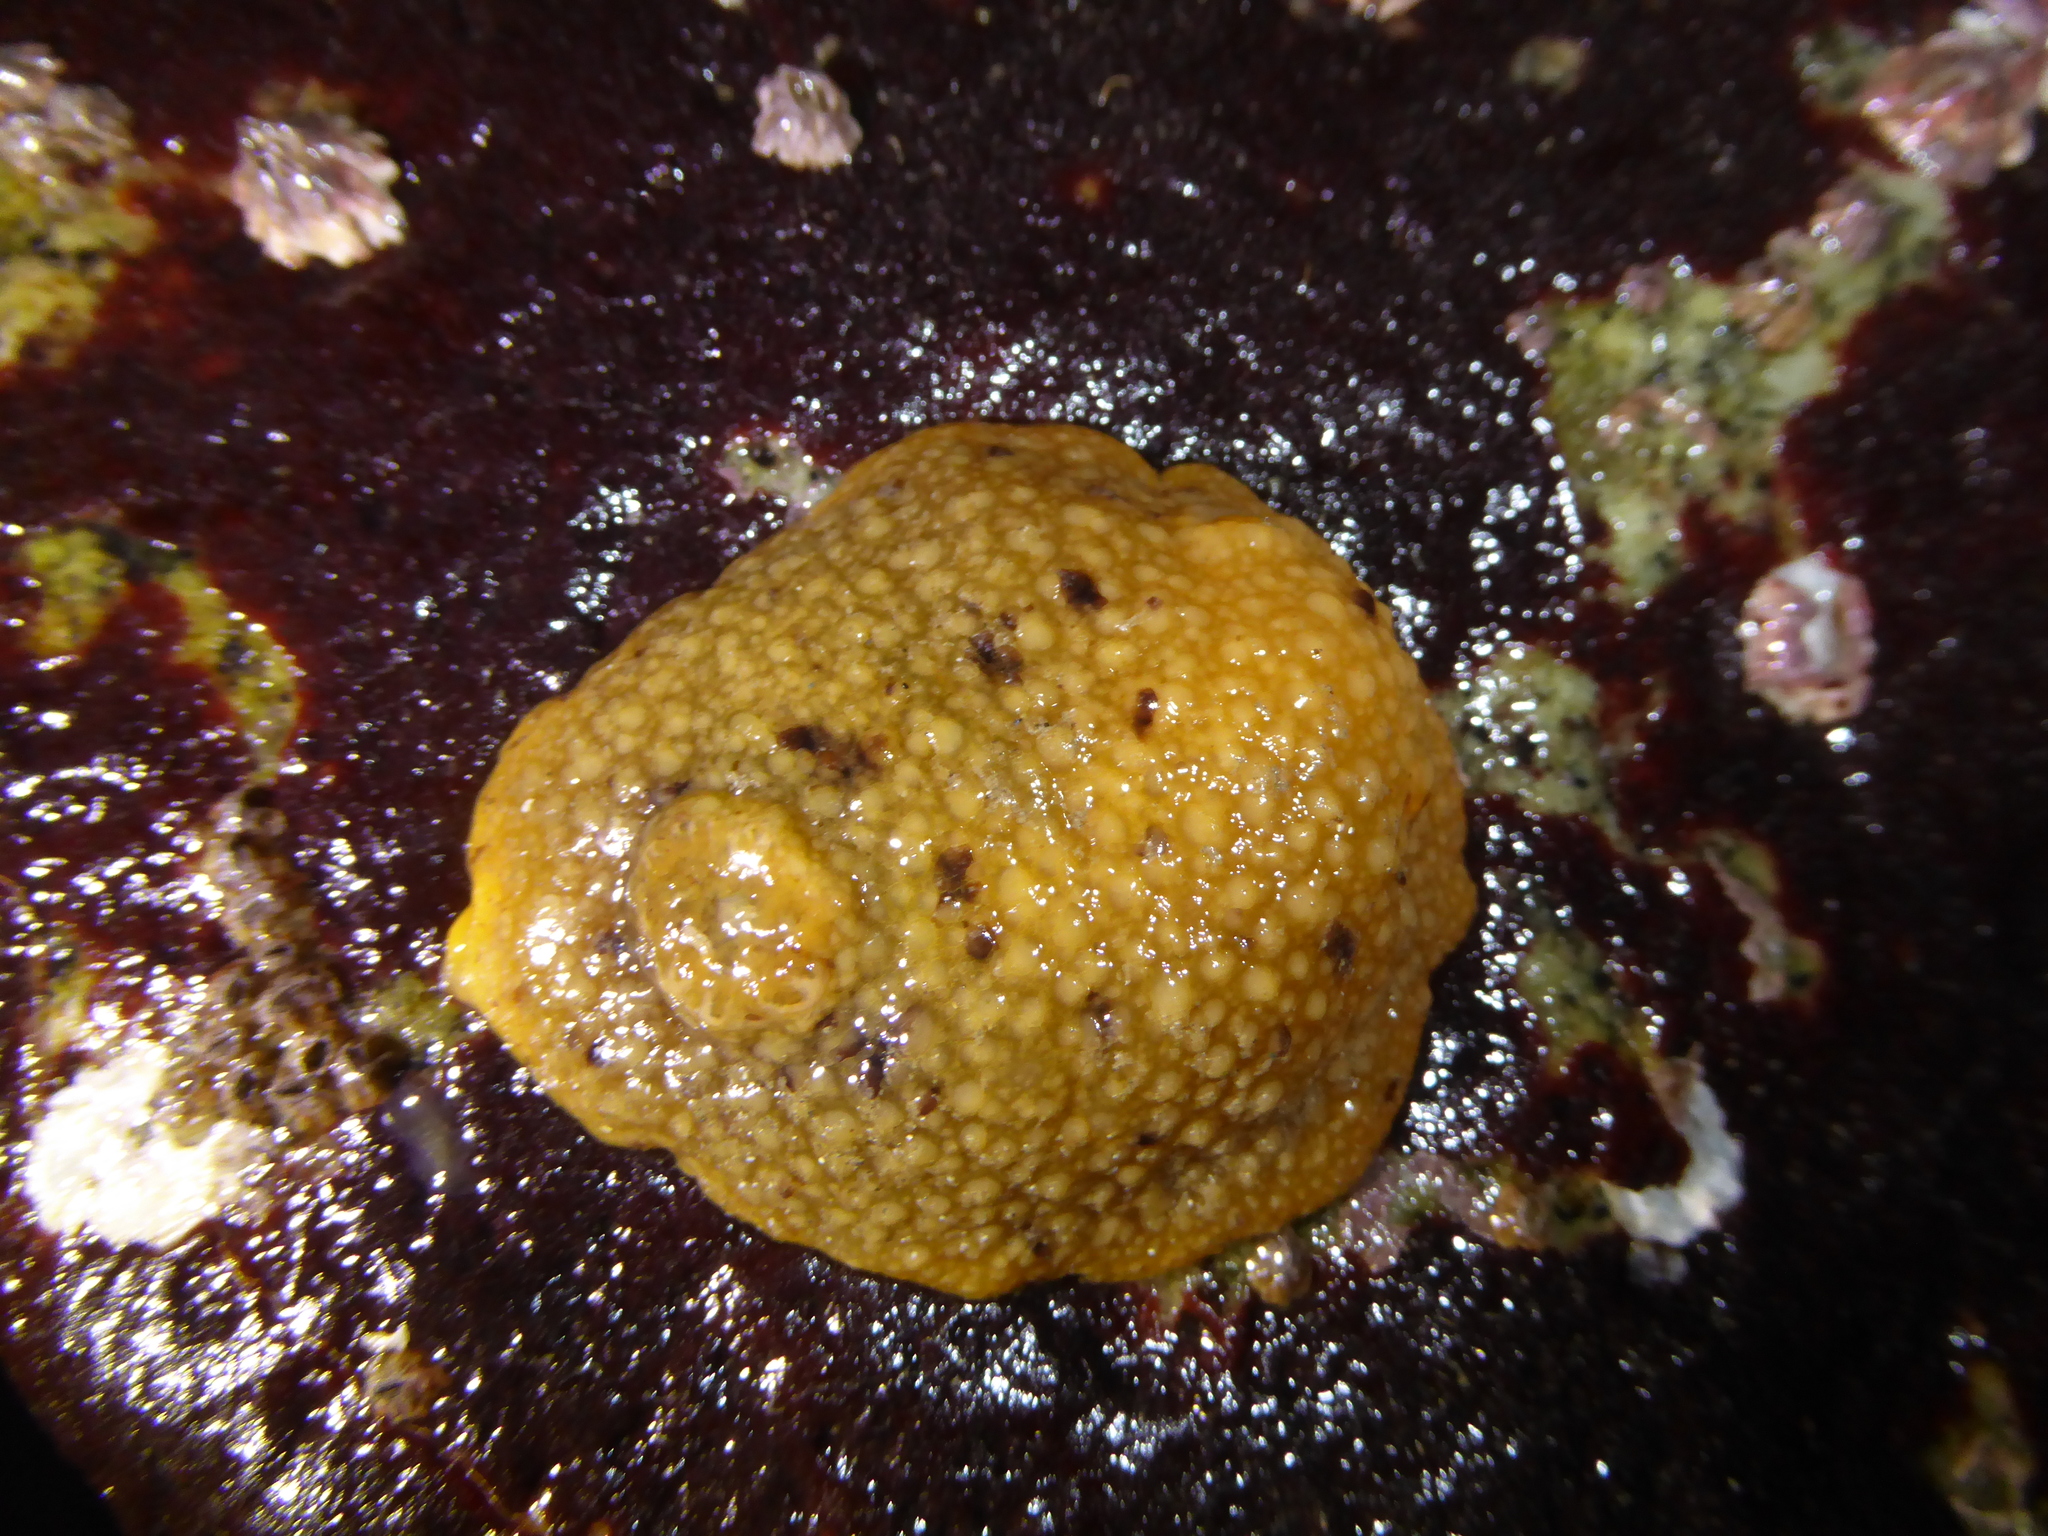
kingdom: Animalia
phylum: Mollusca
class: Gastropoda
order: Nudibranchia
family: Dorididae
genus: Doris
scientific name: Doris montereyensis
